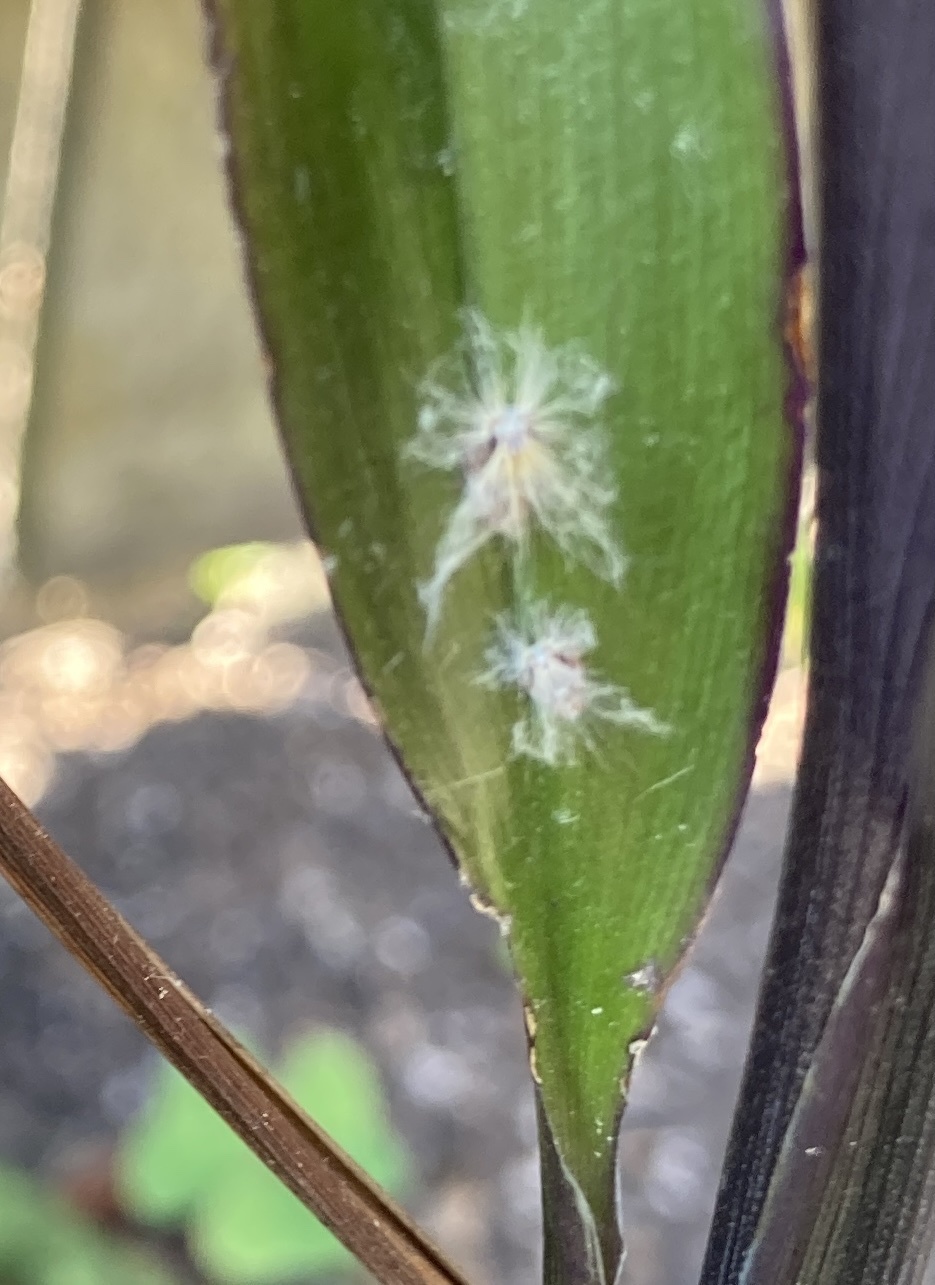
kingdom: Animalia
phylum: Arthropoda
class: Insecta
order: Hemiptera
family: Ricaniidae
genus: Scolypopa
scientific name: Scolypopa australis
